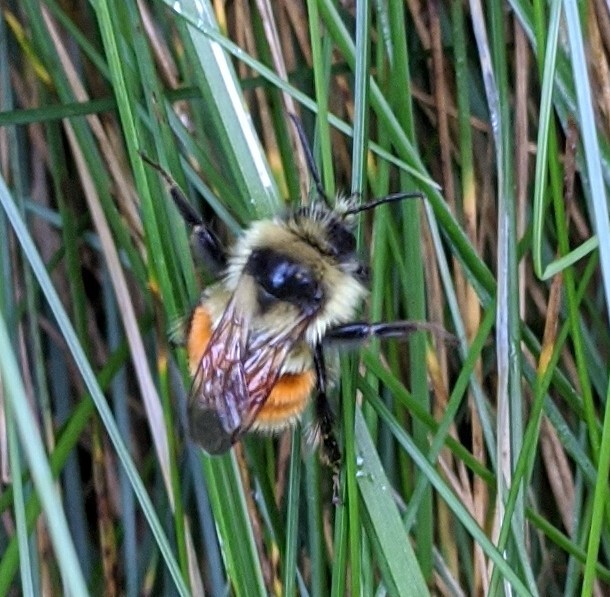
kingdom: Animalia
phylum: Arthropoda
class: Insecta
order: Hymenoptera
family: Apidae
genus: Bombus
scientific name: Bombus ternarius
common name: Tri-colored bumble bee
